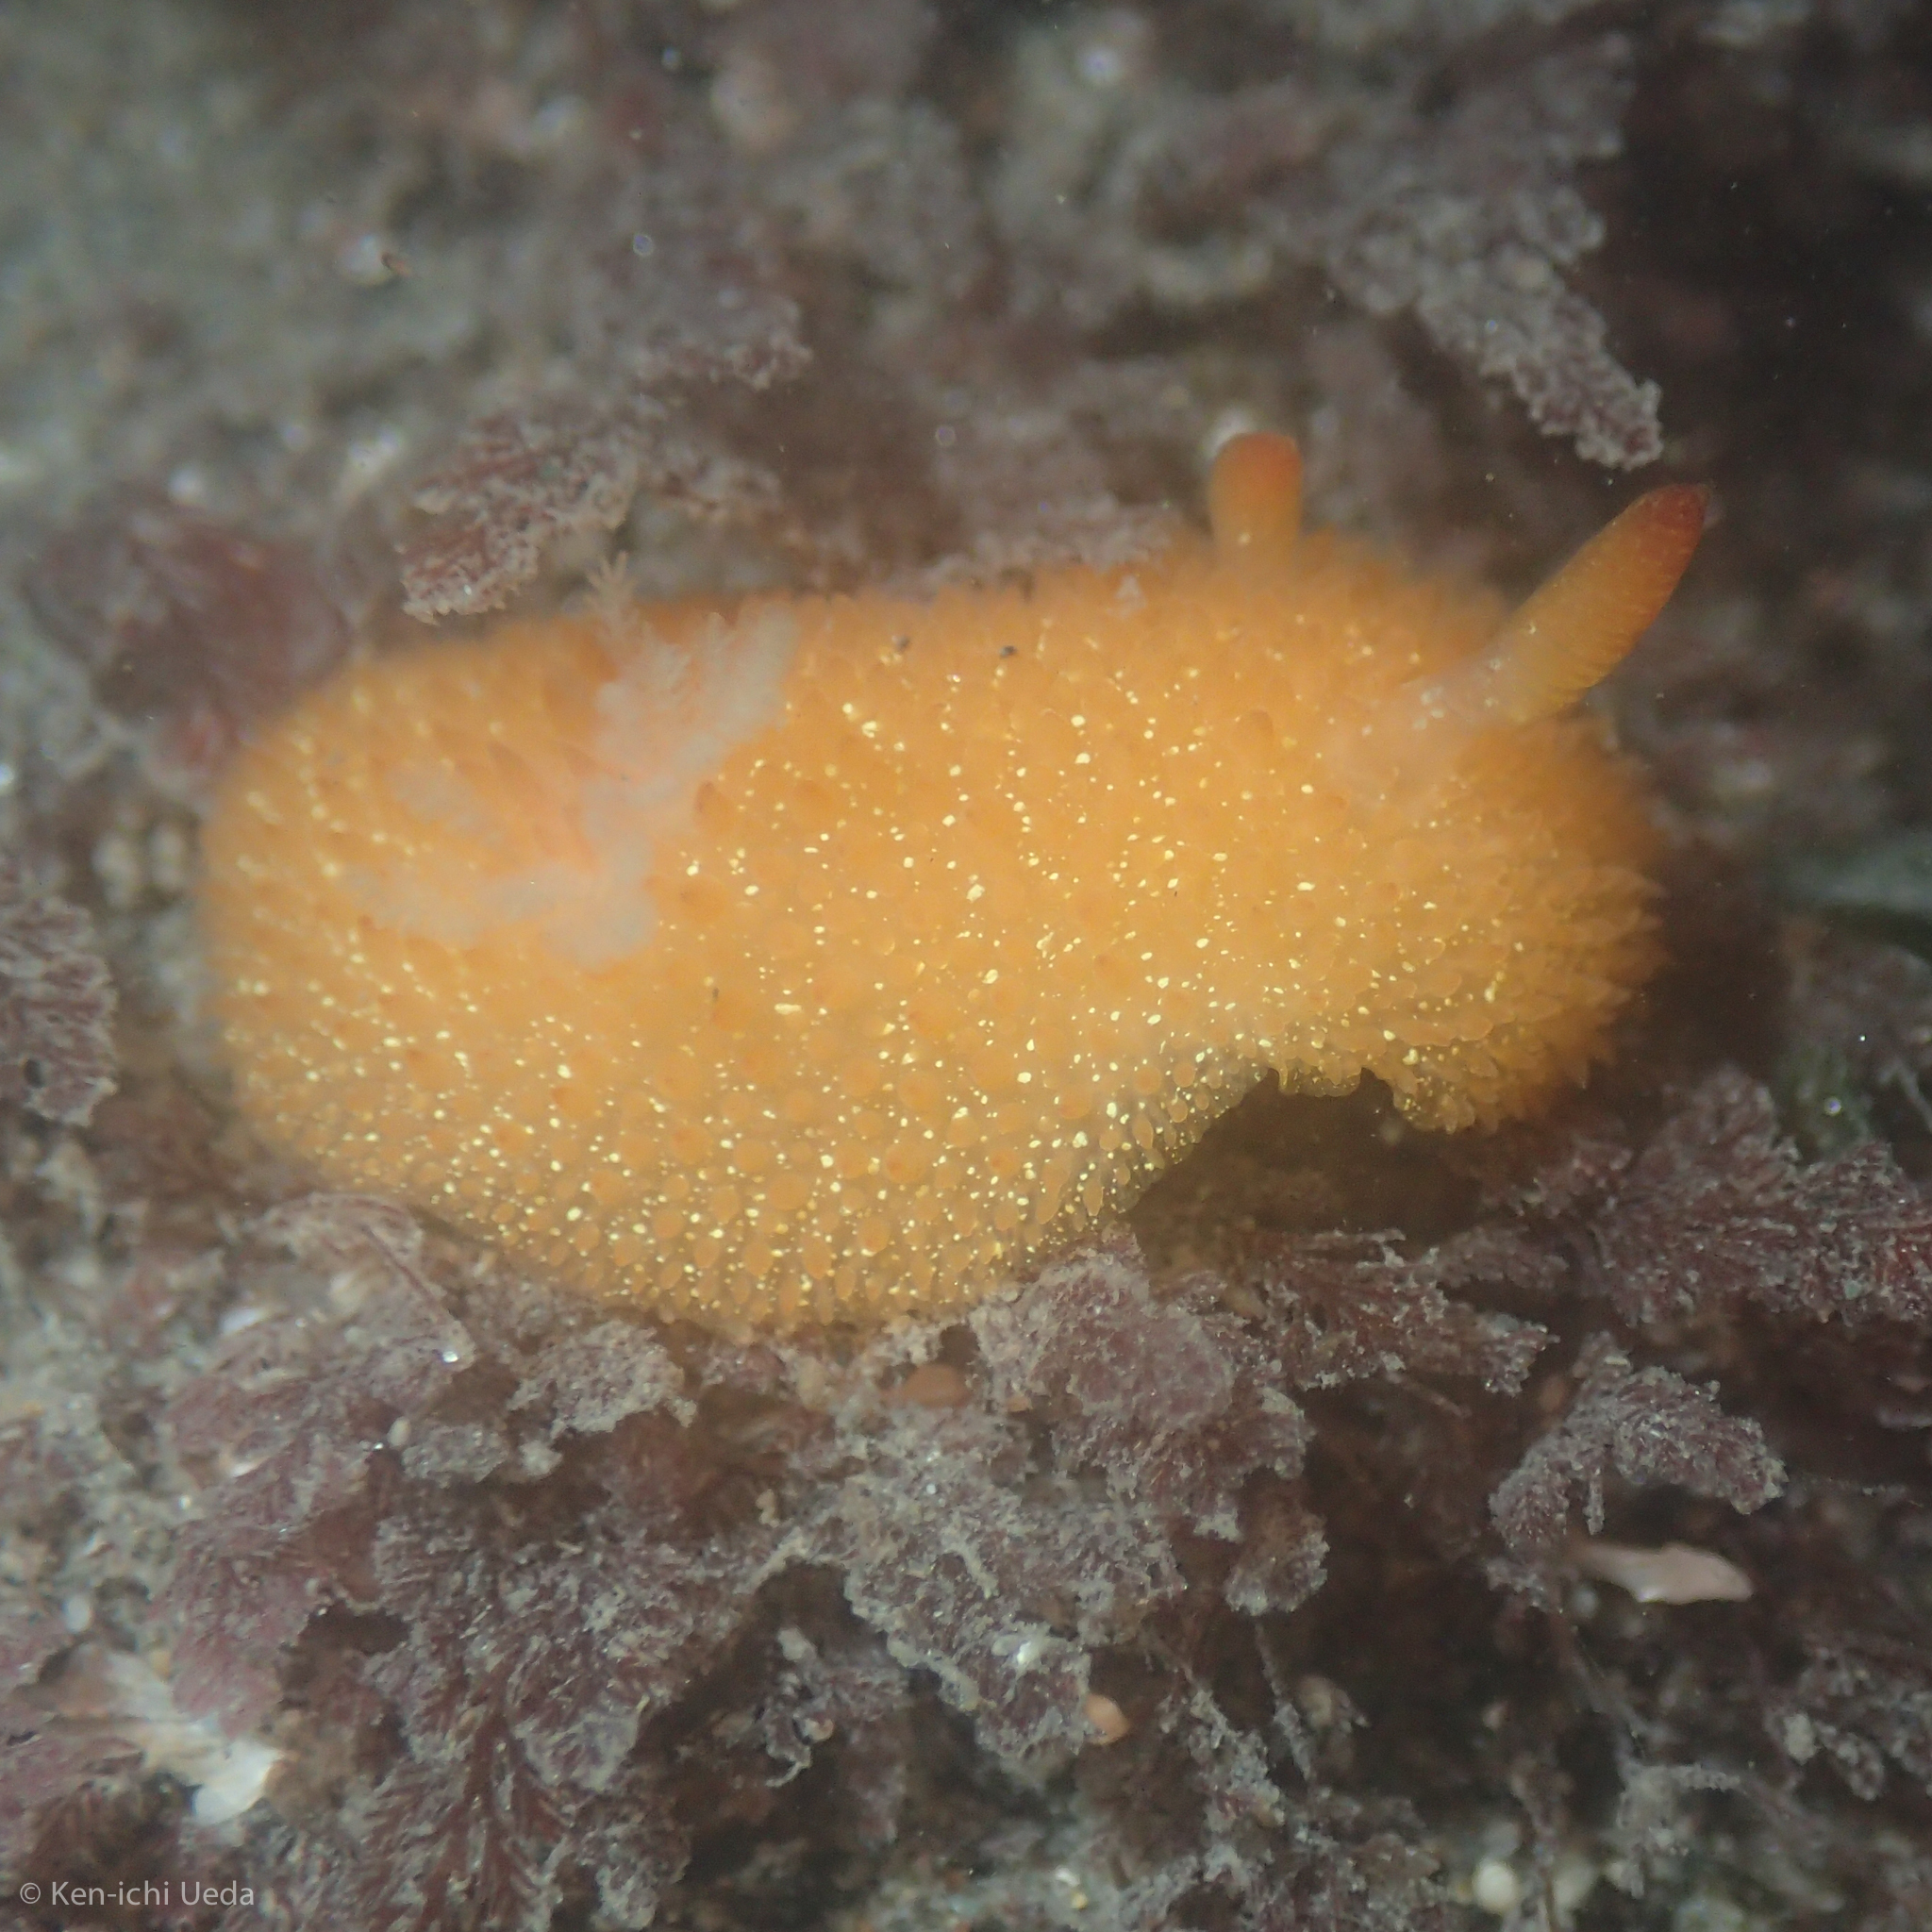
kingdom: Animalia
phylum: Mollusca
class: Gastropoda
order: Nudibranchia
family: Onchidorididae
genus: Acanthodoris
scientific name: Acanthodoris lutea
